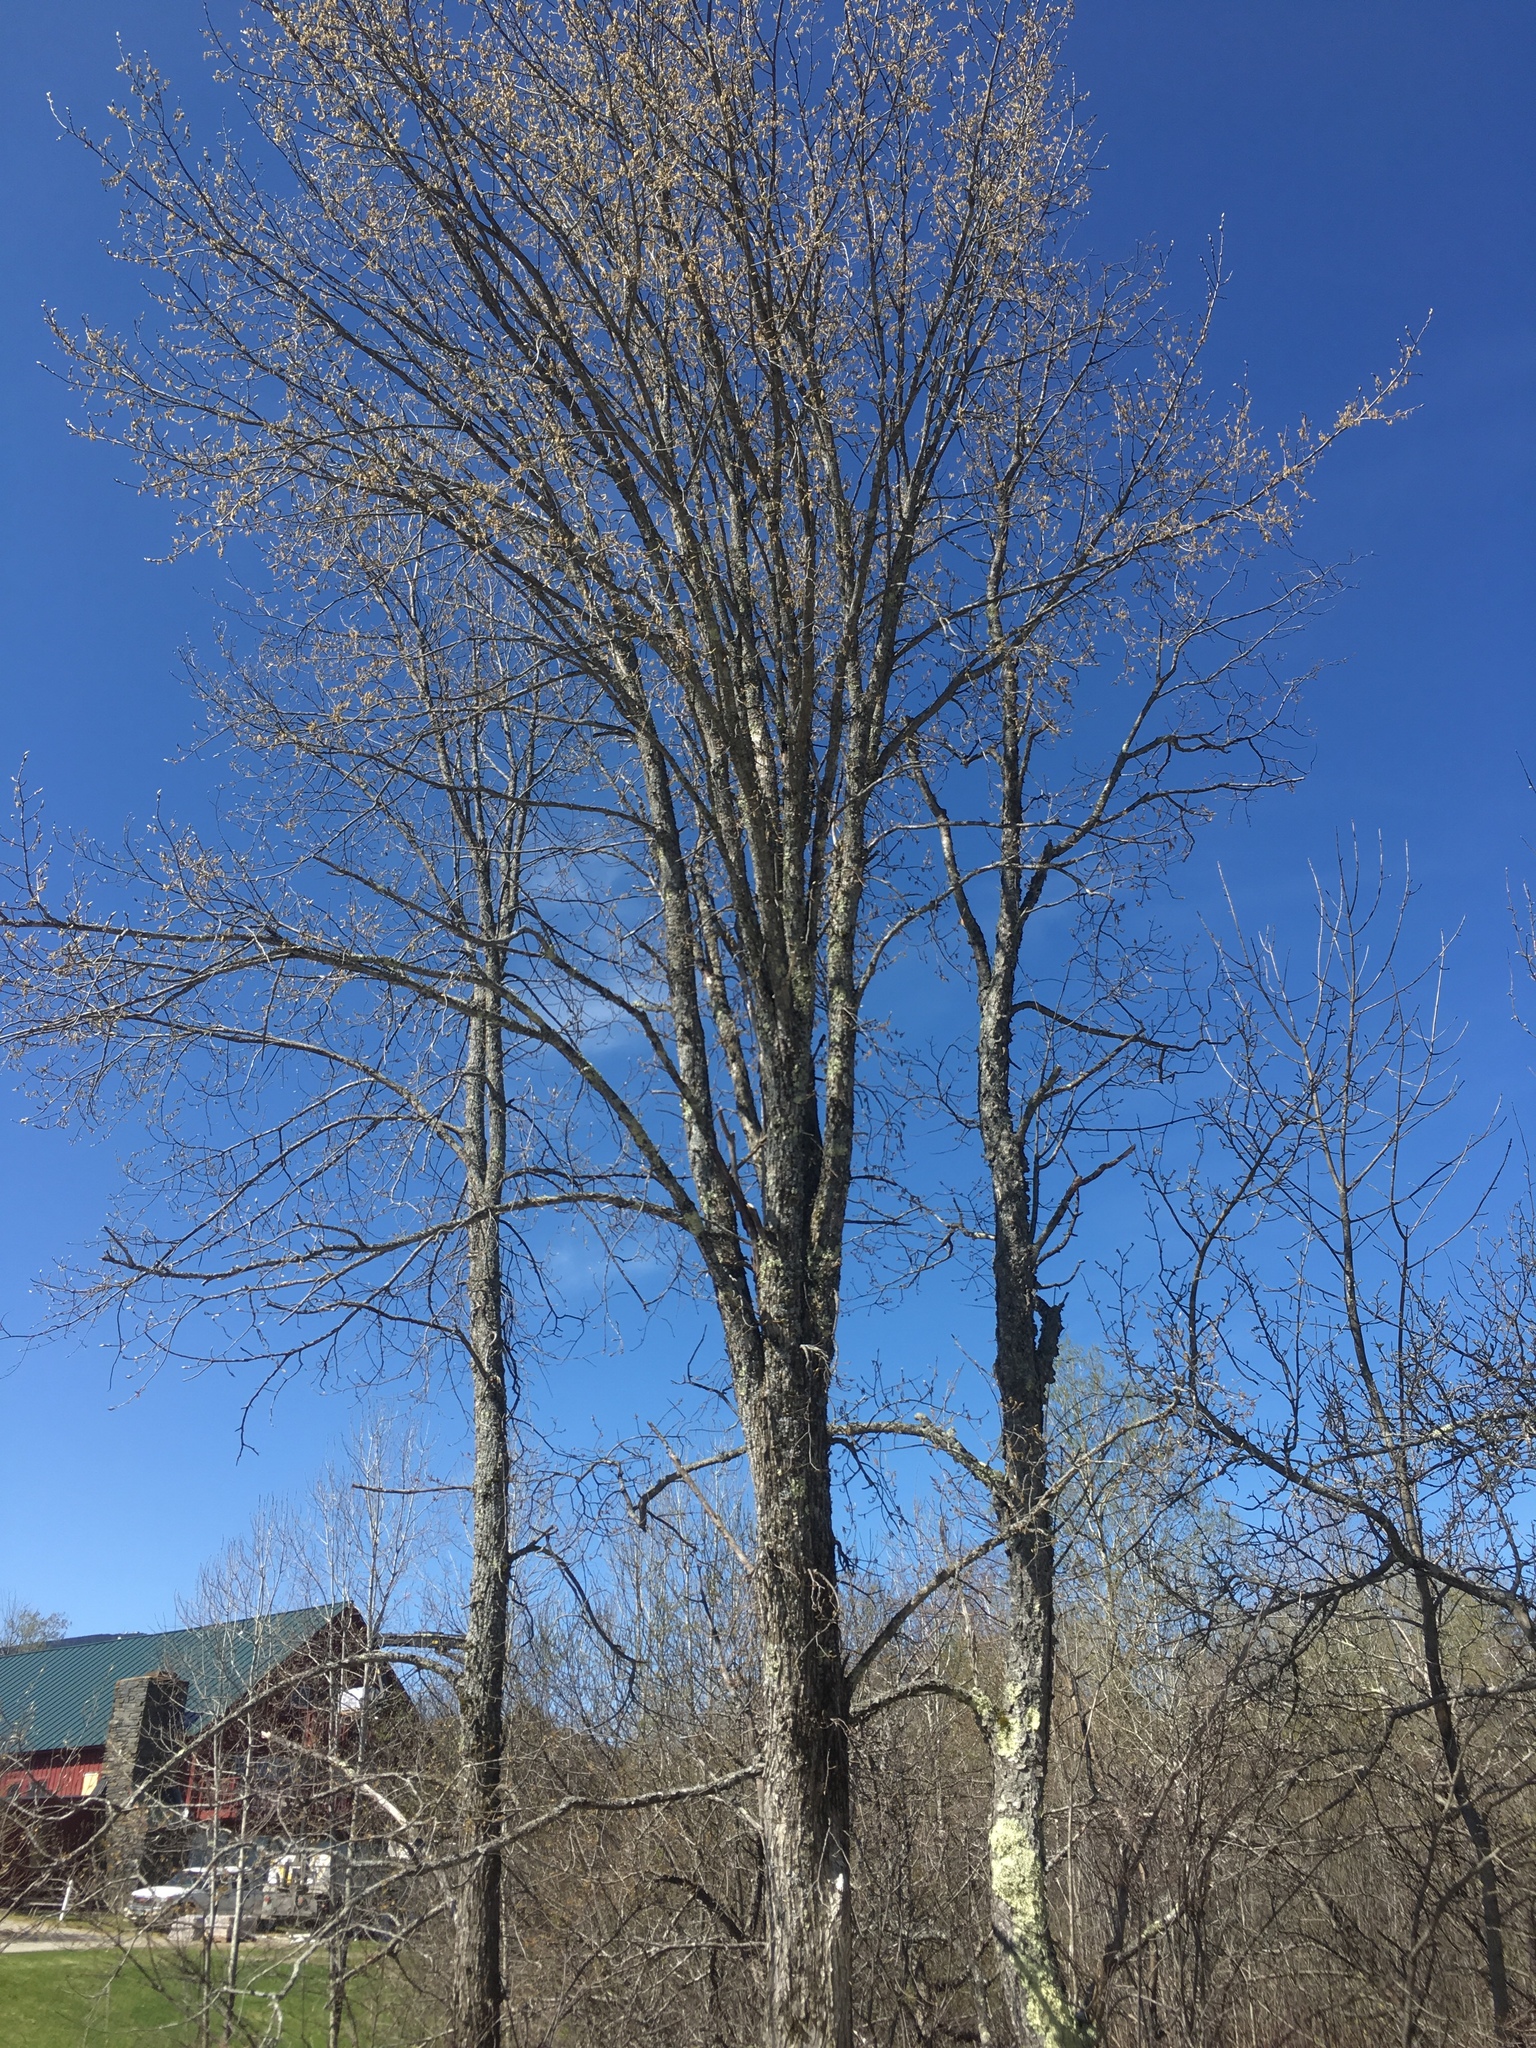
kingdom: Plantae
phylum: Tracheophyta
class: Magnoliopsida
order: Rosales
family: Ulmaceae
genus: Ulmus
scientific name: Ulmus americana
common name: American elm
